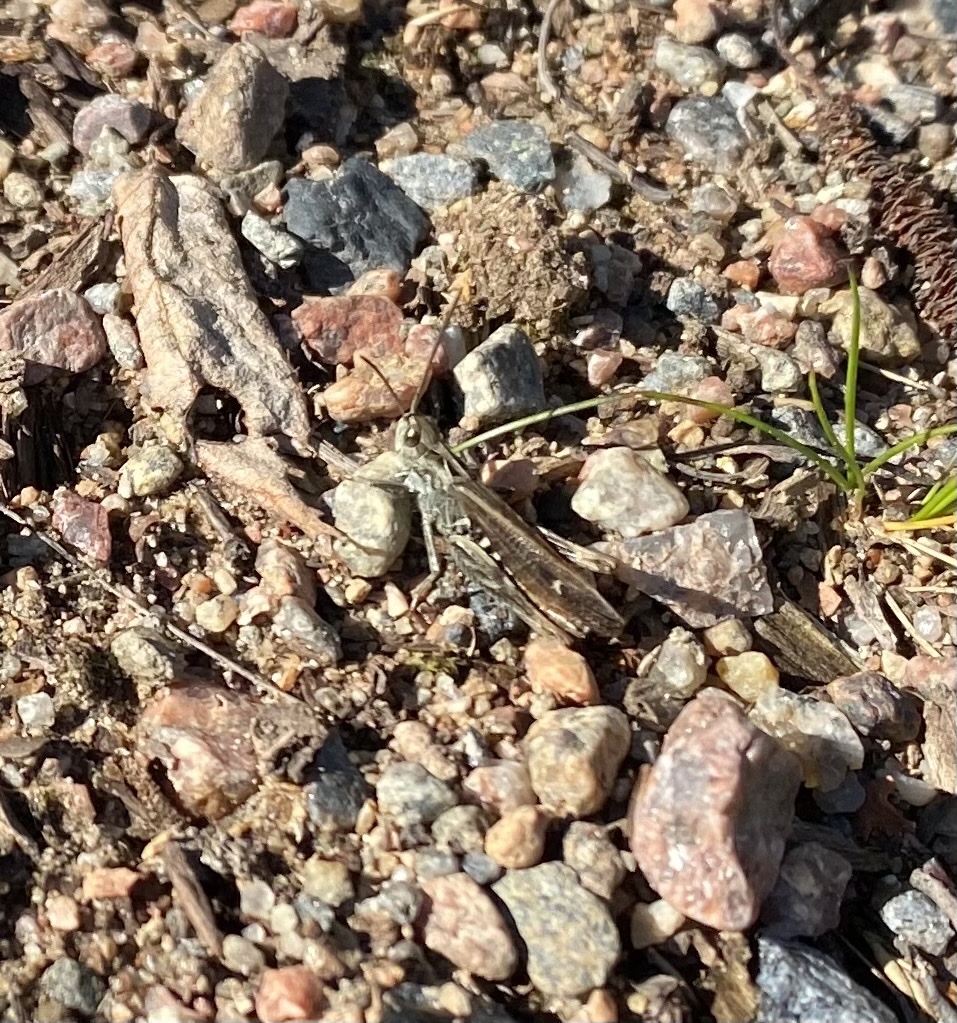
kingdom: Animalia
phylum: Arthropoda
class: Insecta
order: Orthoptera
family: Acrididae
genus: Chorthippus
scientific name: Chorthippus biguttulus
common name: Bow-winged grasshopper
